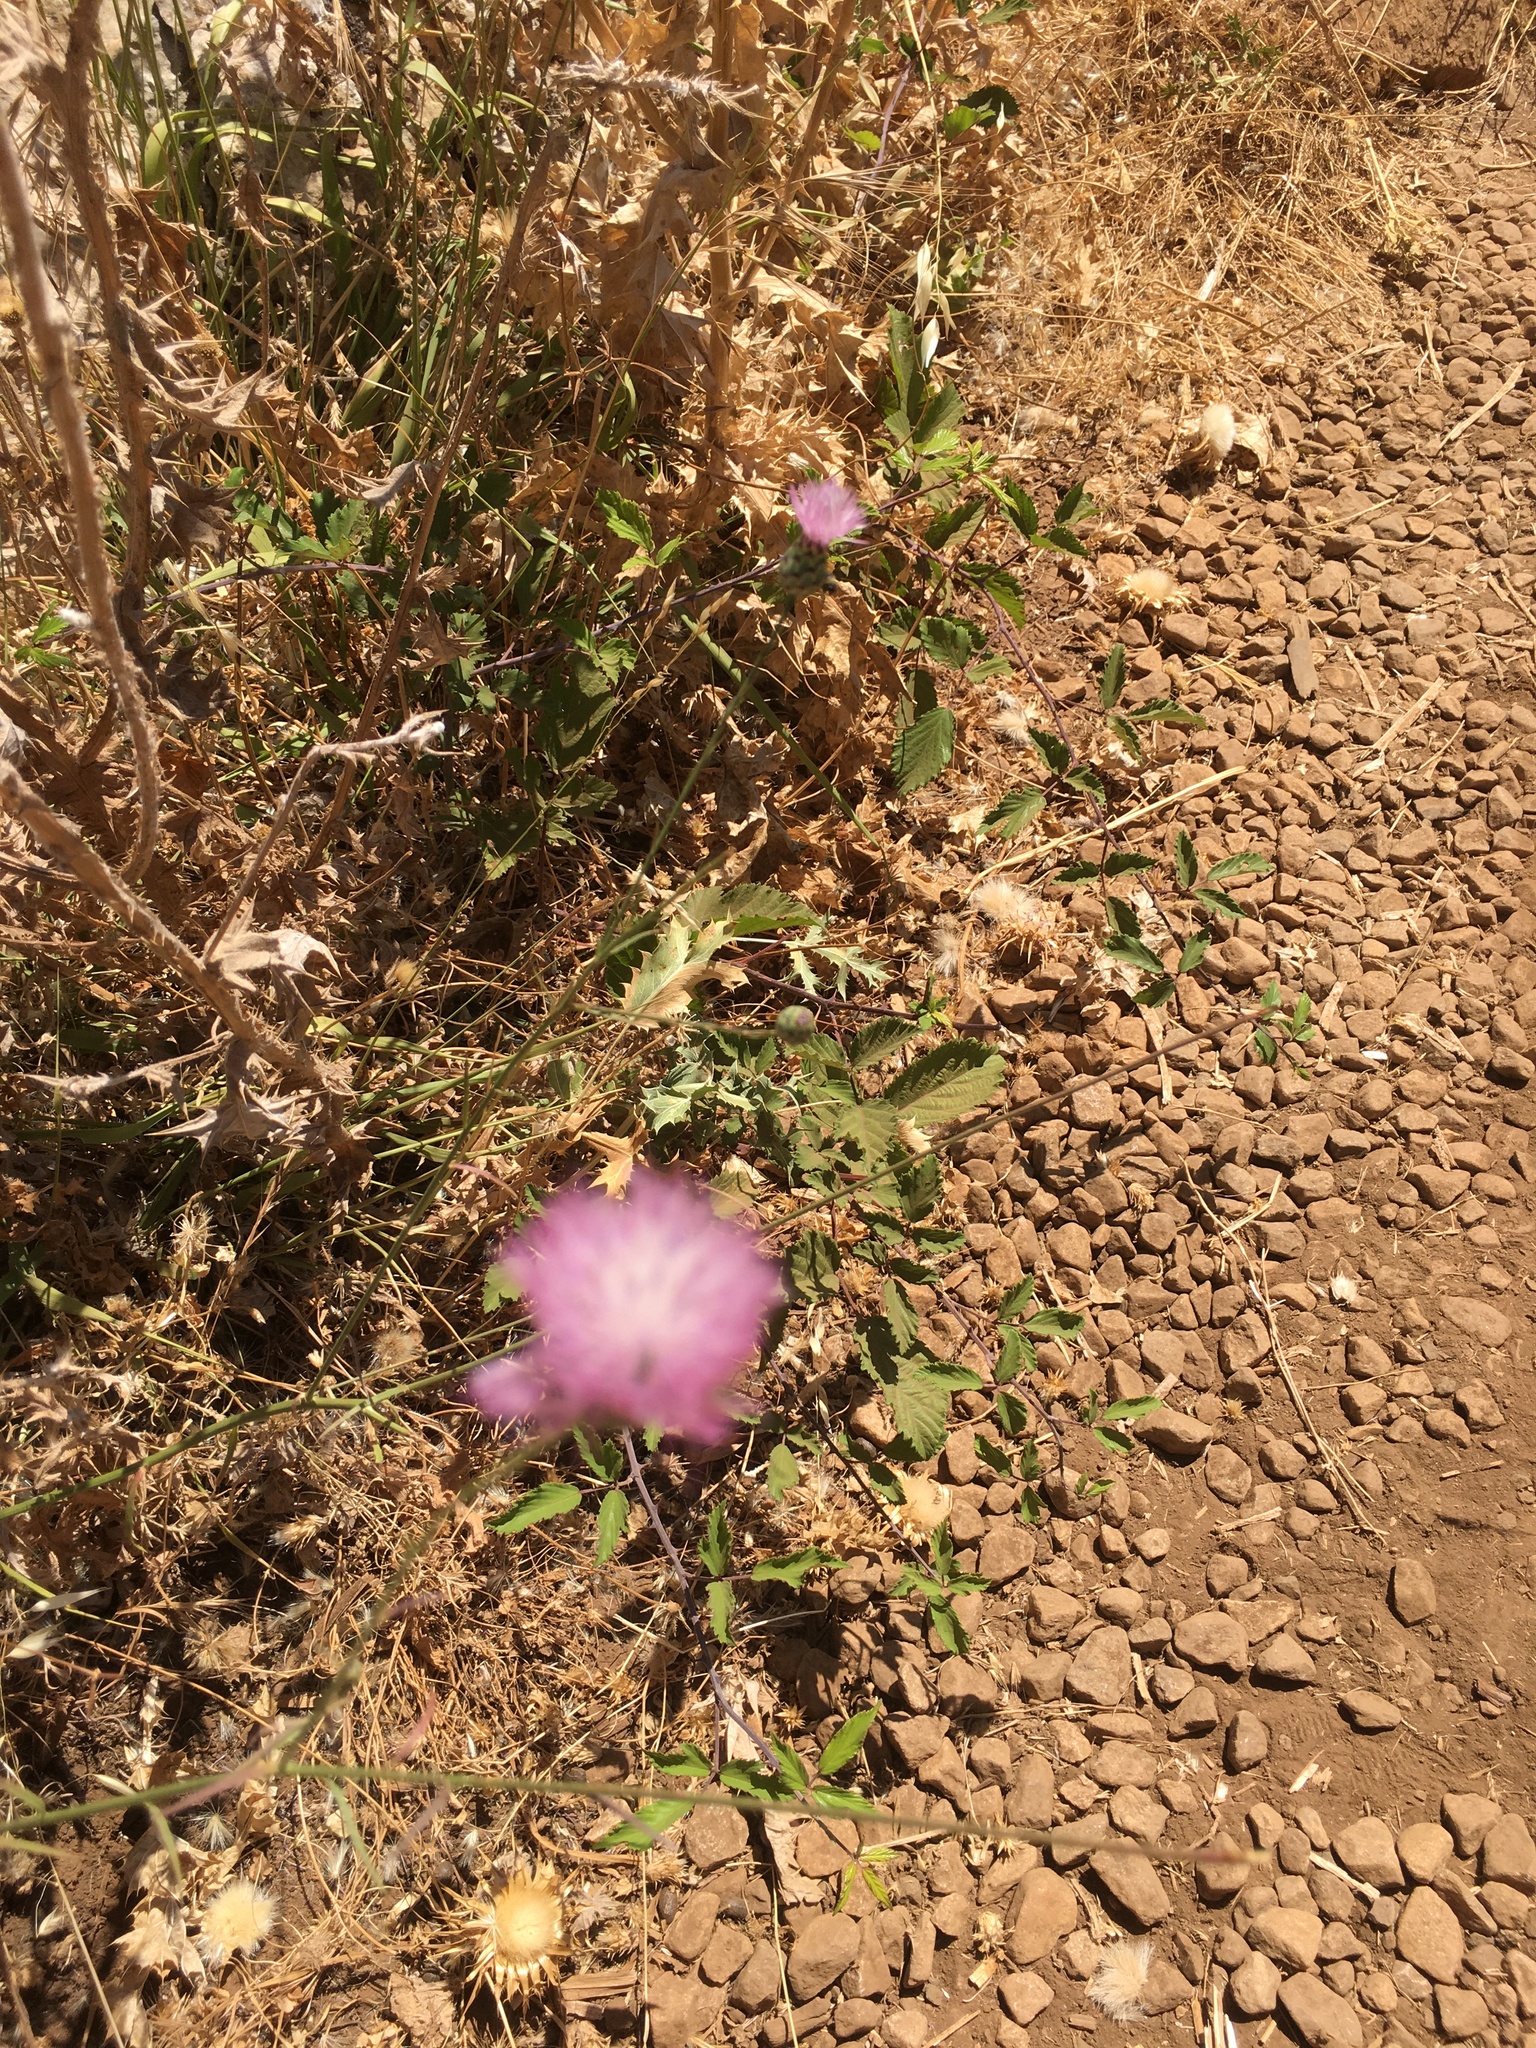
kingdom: Plantae
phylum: Tracheophyta
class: Magnoliopsida
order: Asterales
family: Asteraceae
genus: Mantisalca
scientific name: Mantisalca salmantica
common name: Dagger flower
